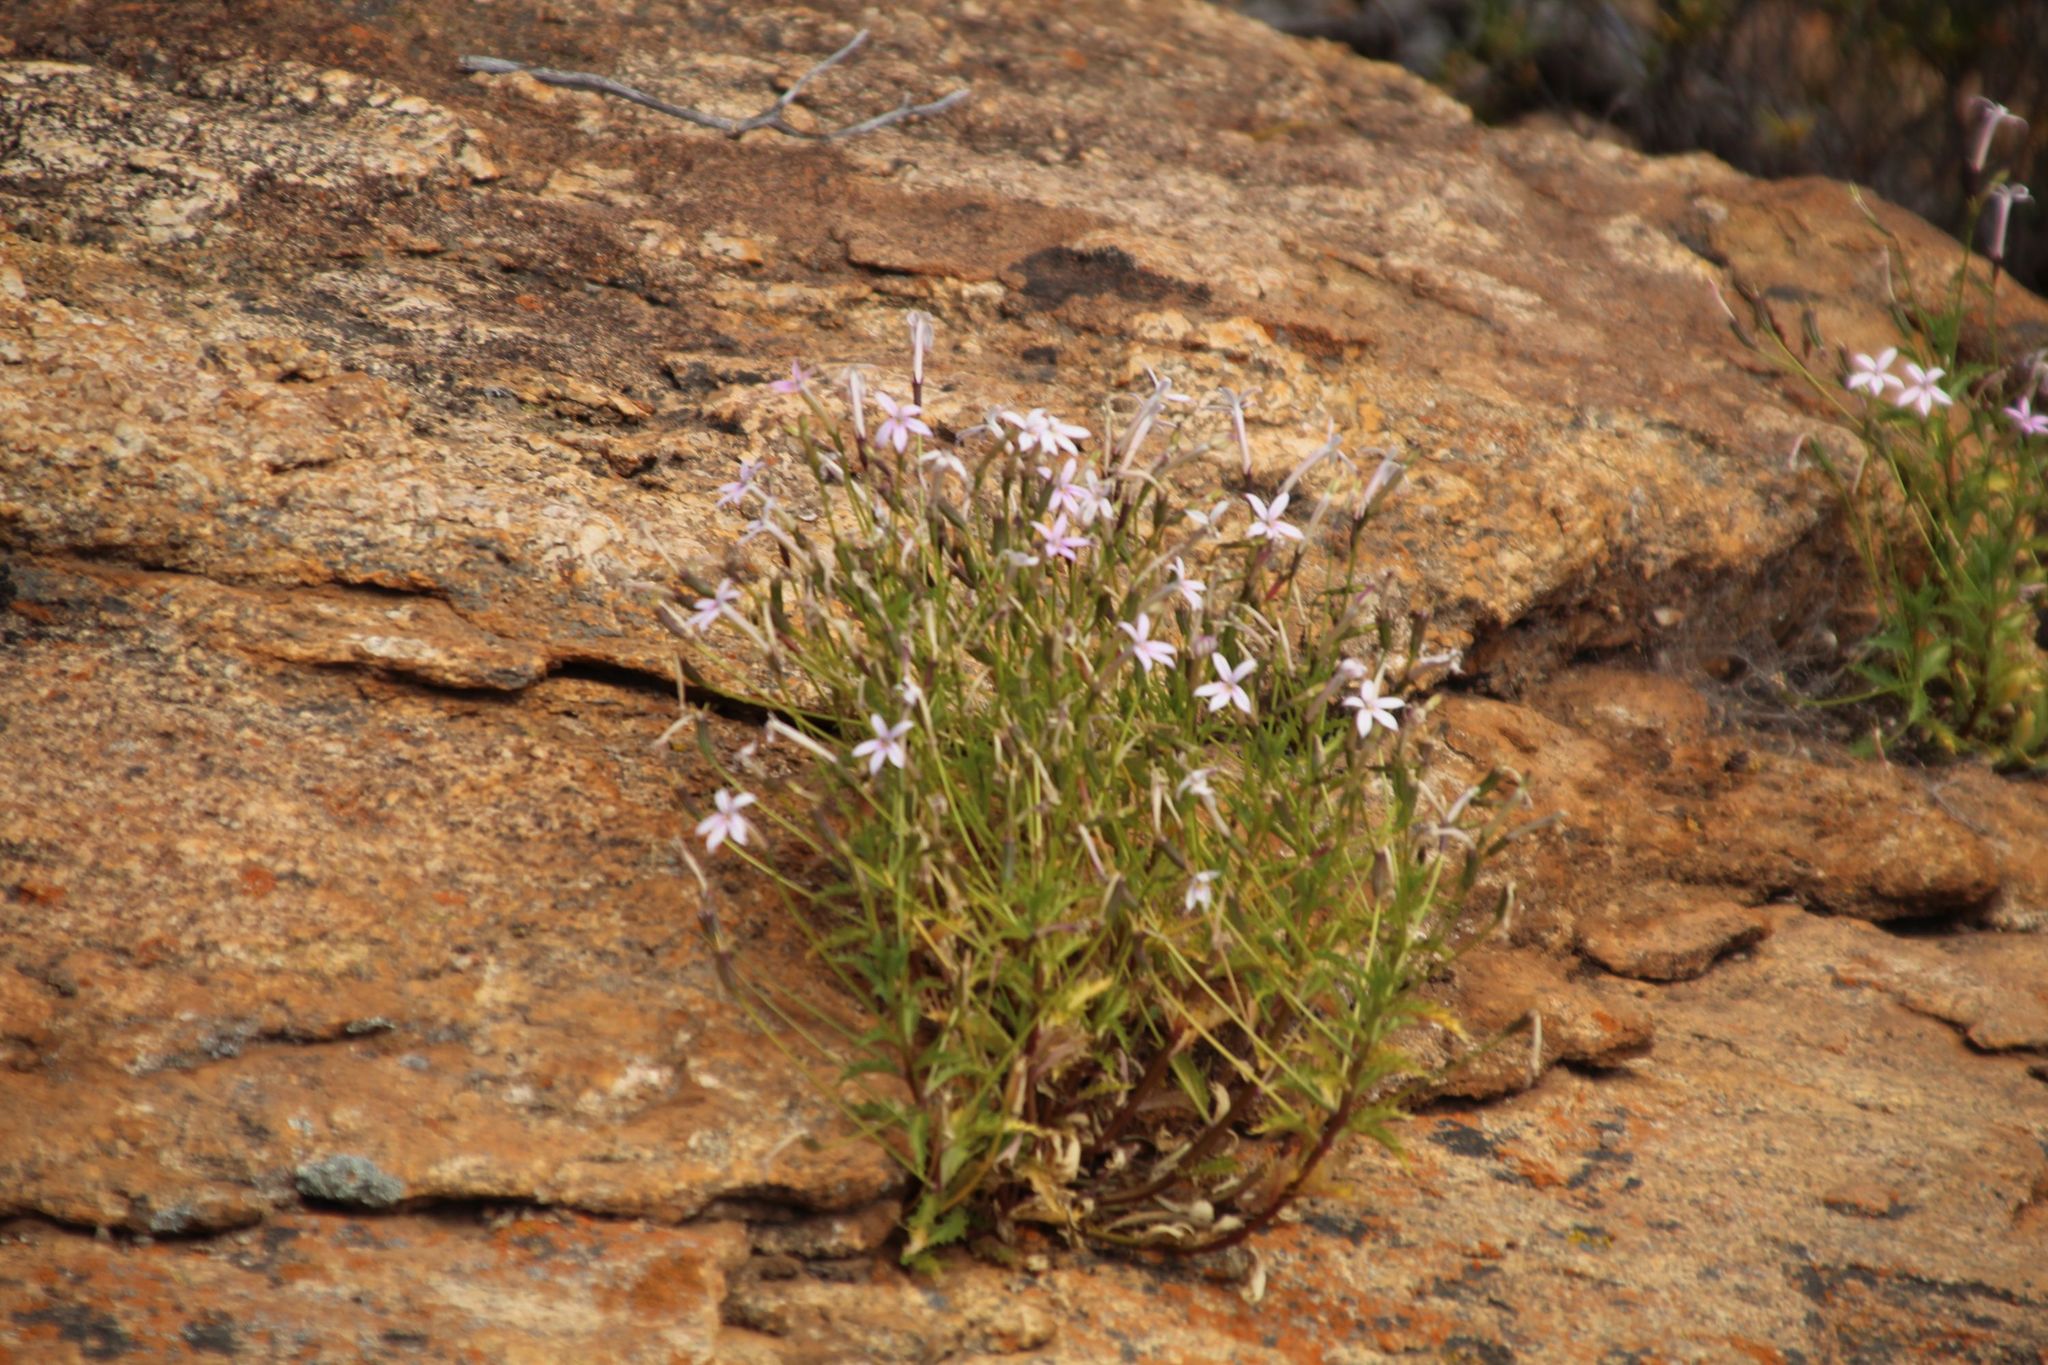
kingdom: Plantae
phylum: Tracheophyta
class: Magnoliopsida
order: Asterales
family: Campanulaceae
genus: Lithotoma
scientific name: Lithotoma axillaris
